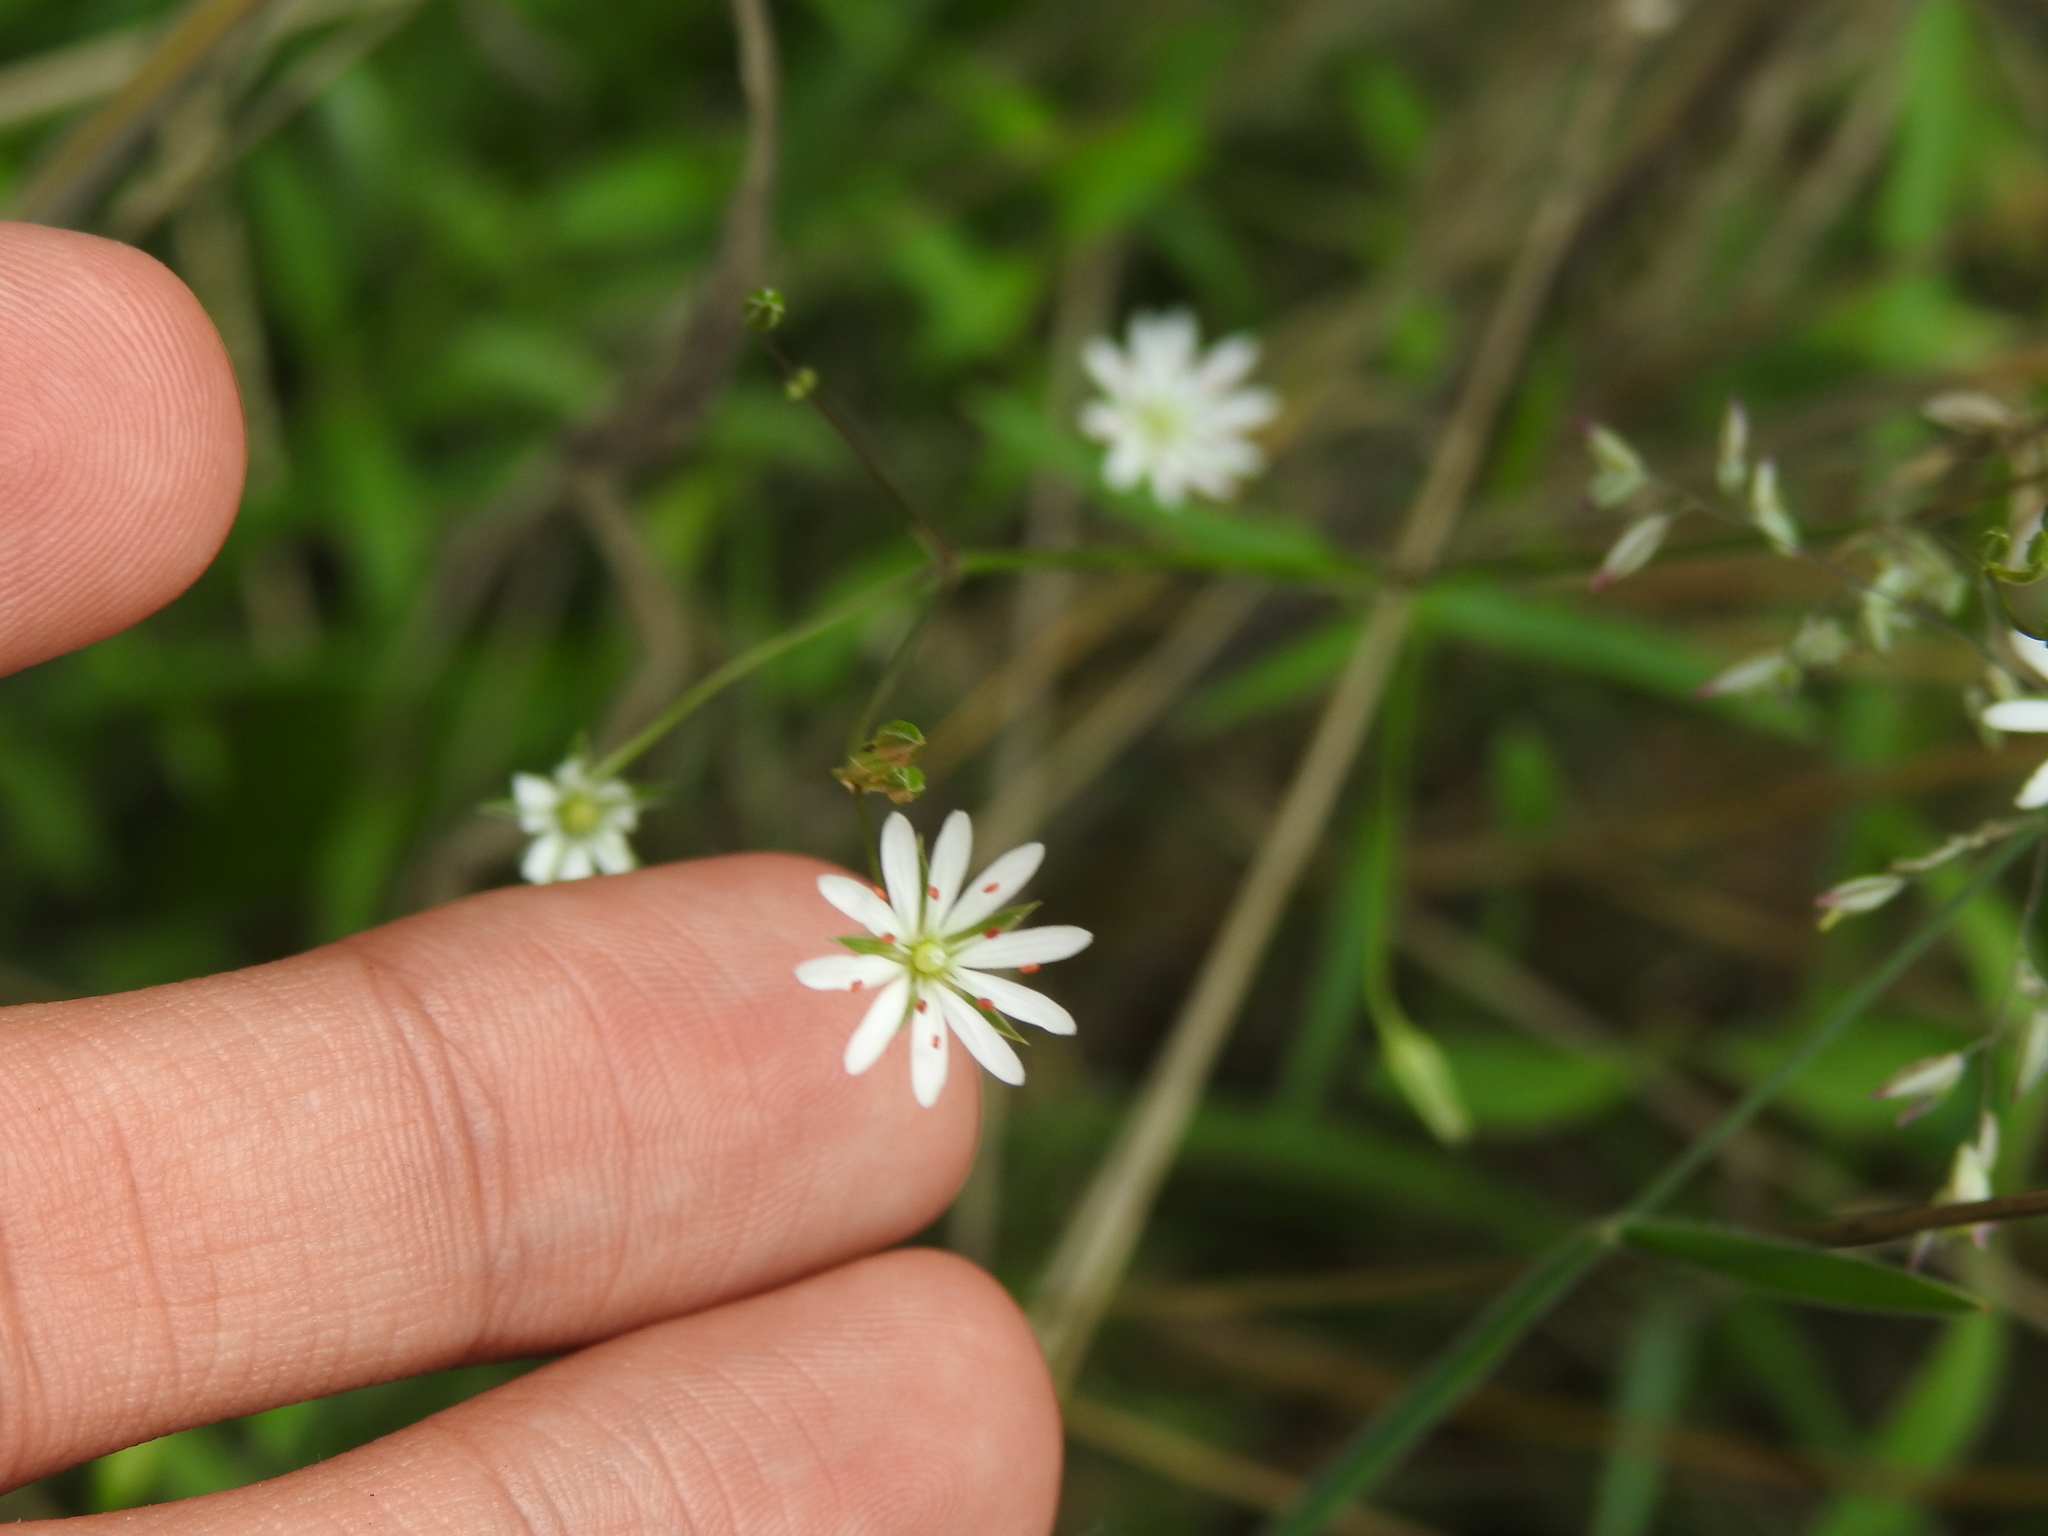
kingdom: Plantae
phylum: Tracheophyta
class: Magnoliopsida
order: Caryophyllales
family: Caryophyllaceae
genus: Stellaria
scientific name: Stellaria graminea
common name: Grass-like starwort
